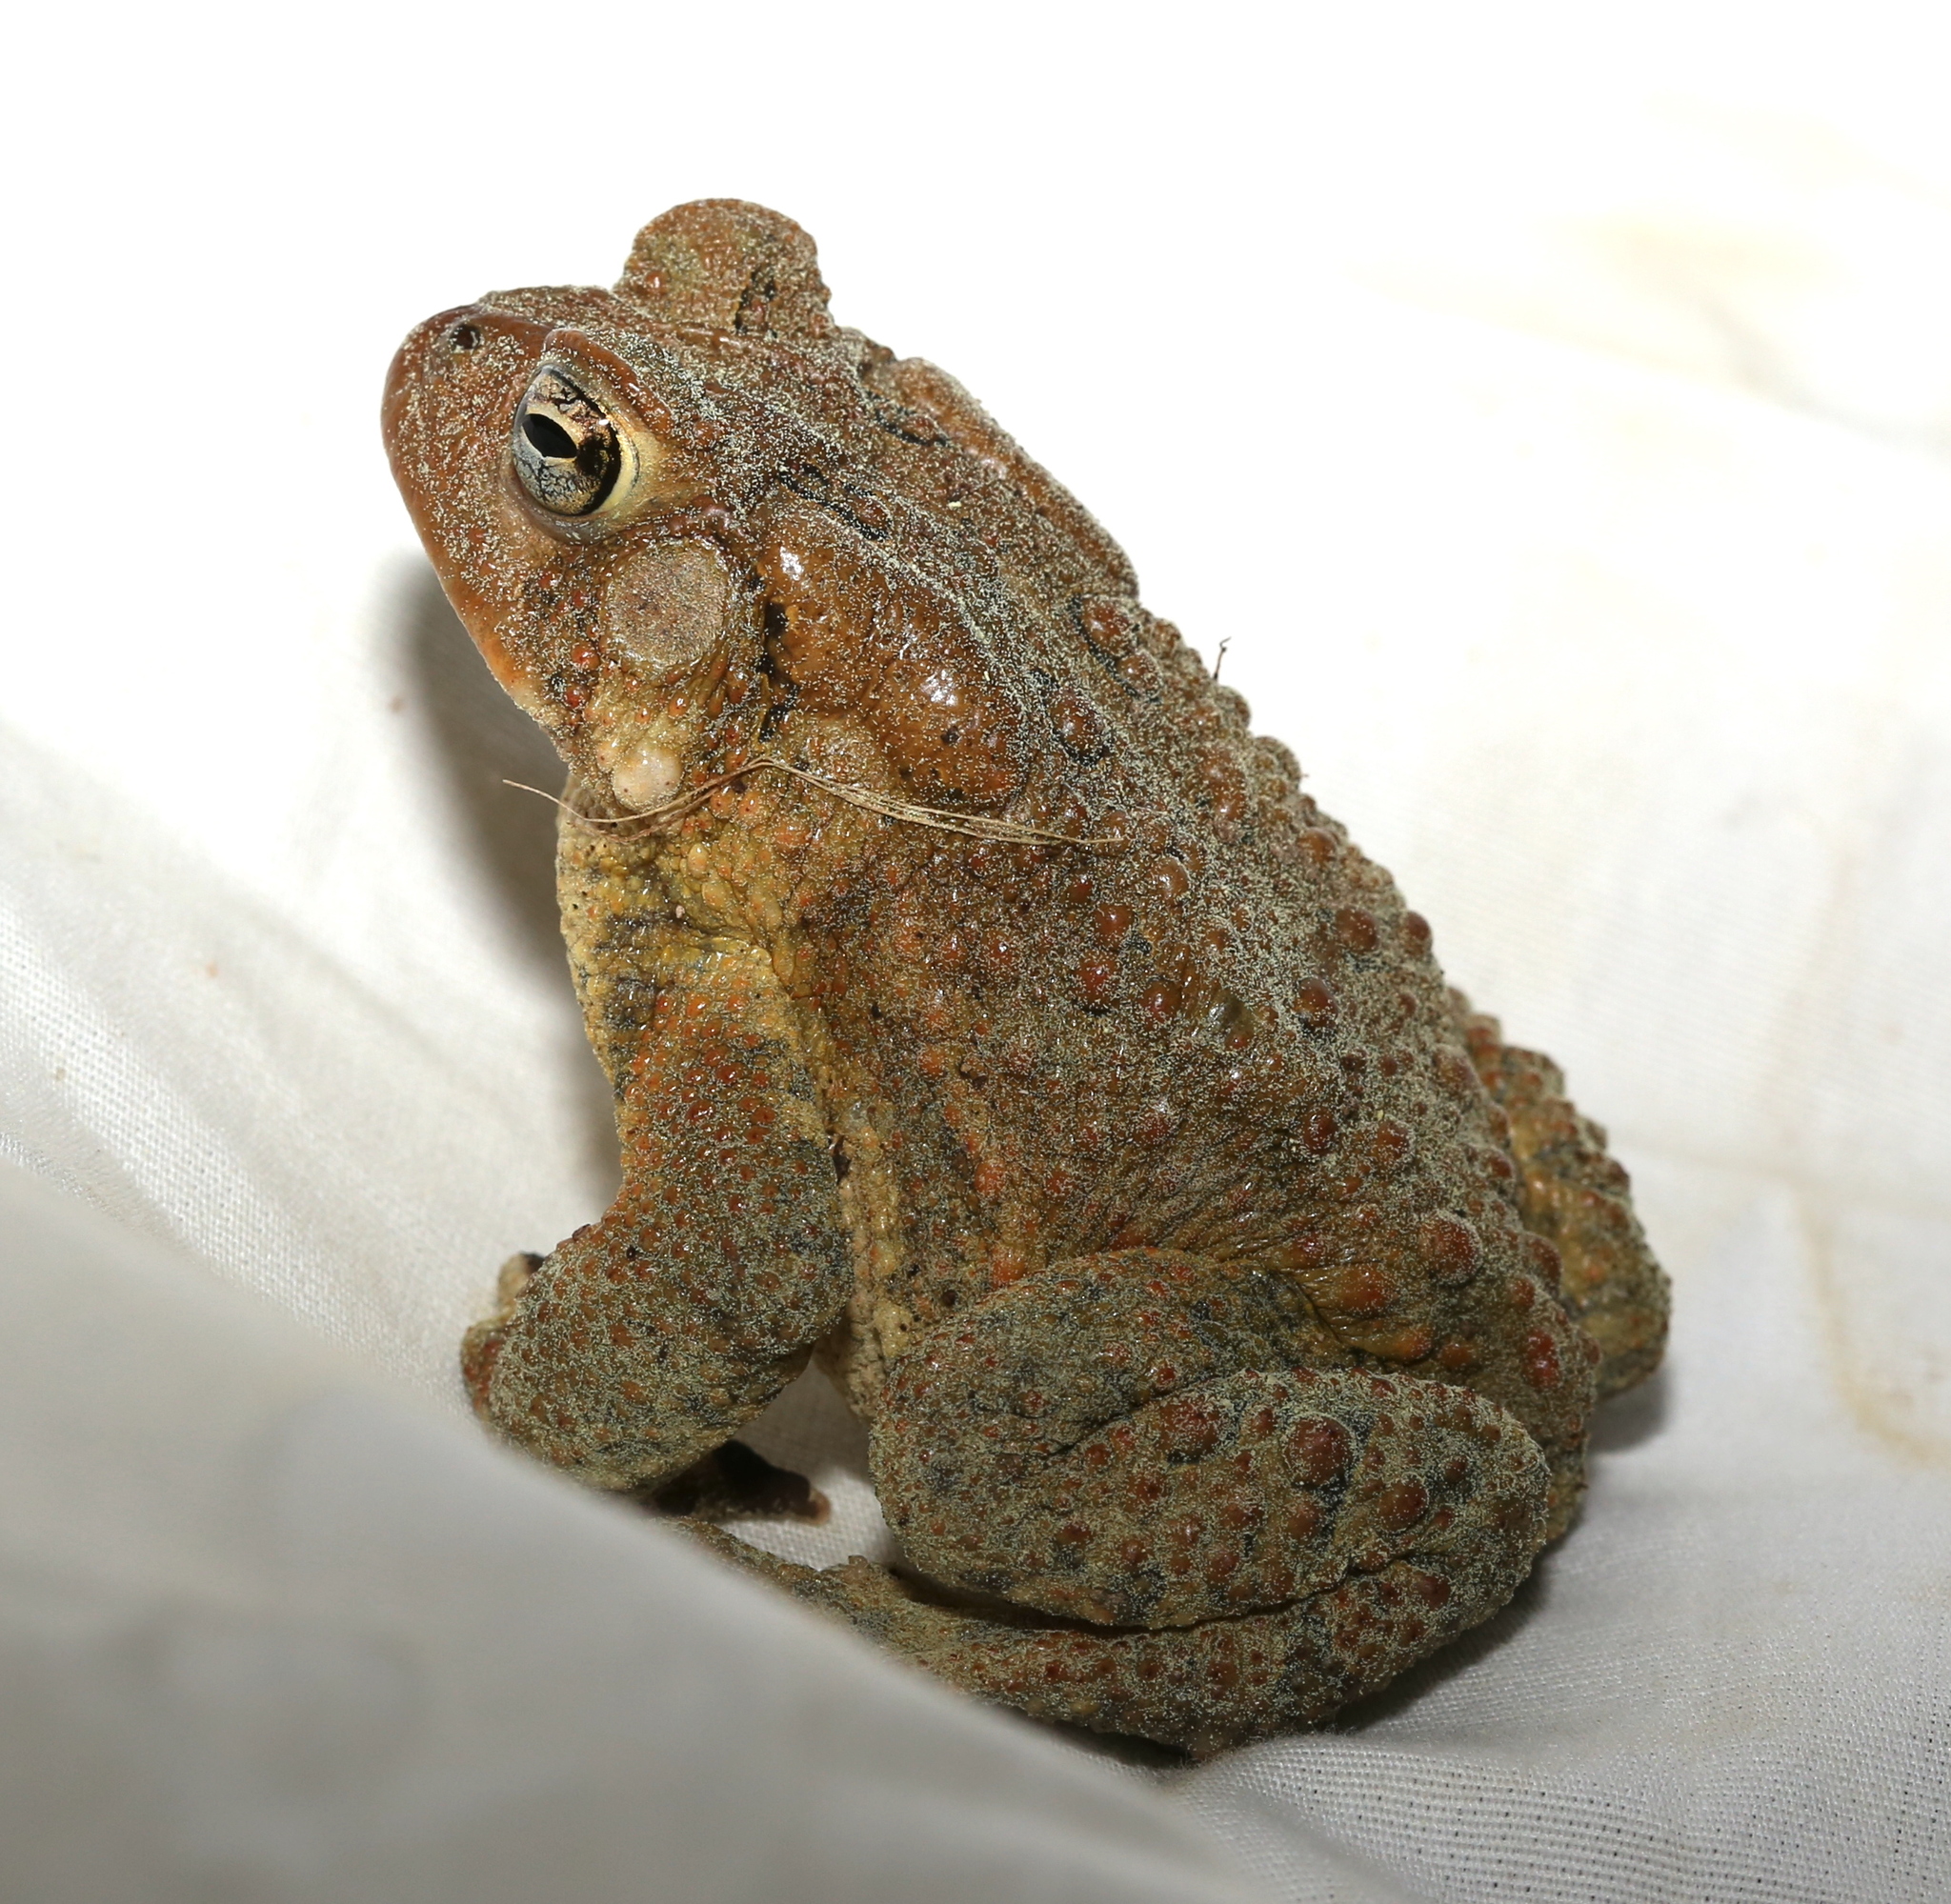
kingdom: Animalia
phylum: Chordata
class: Amphibia
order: Anura
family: Bufonidae
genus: Anaxyrus
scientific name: Anaxyrus americanus
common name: American toad
